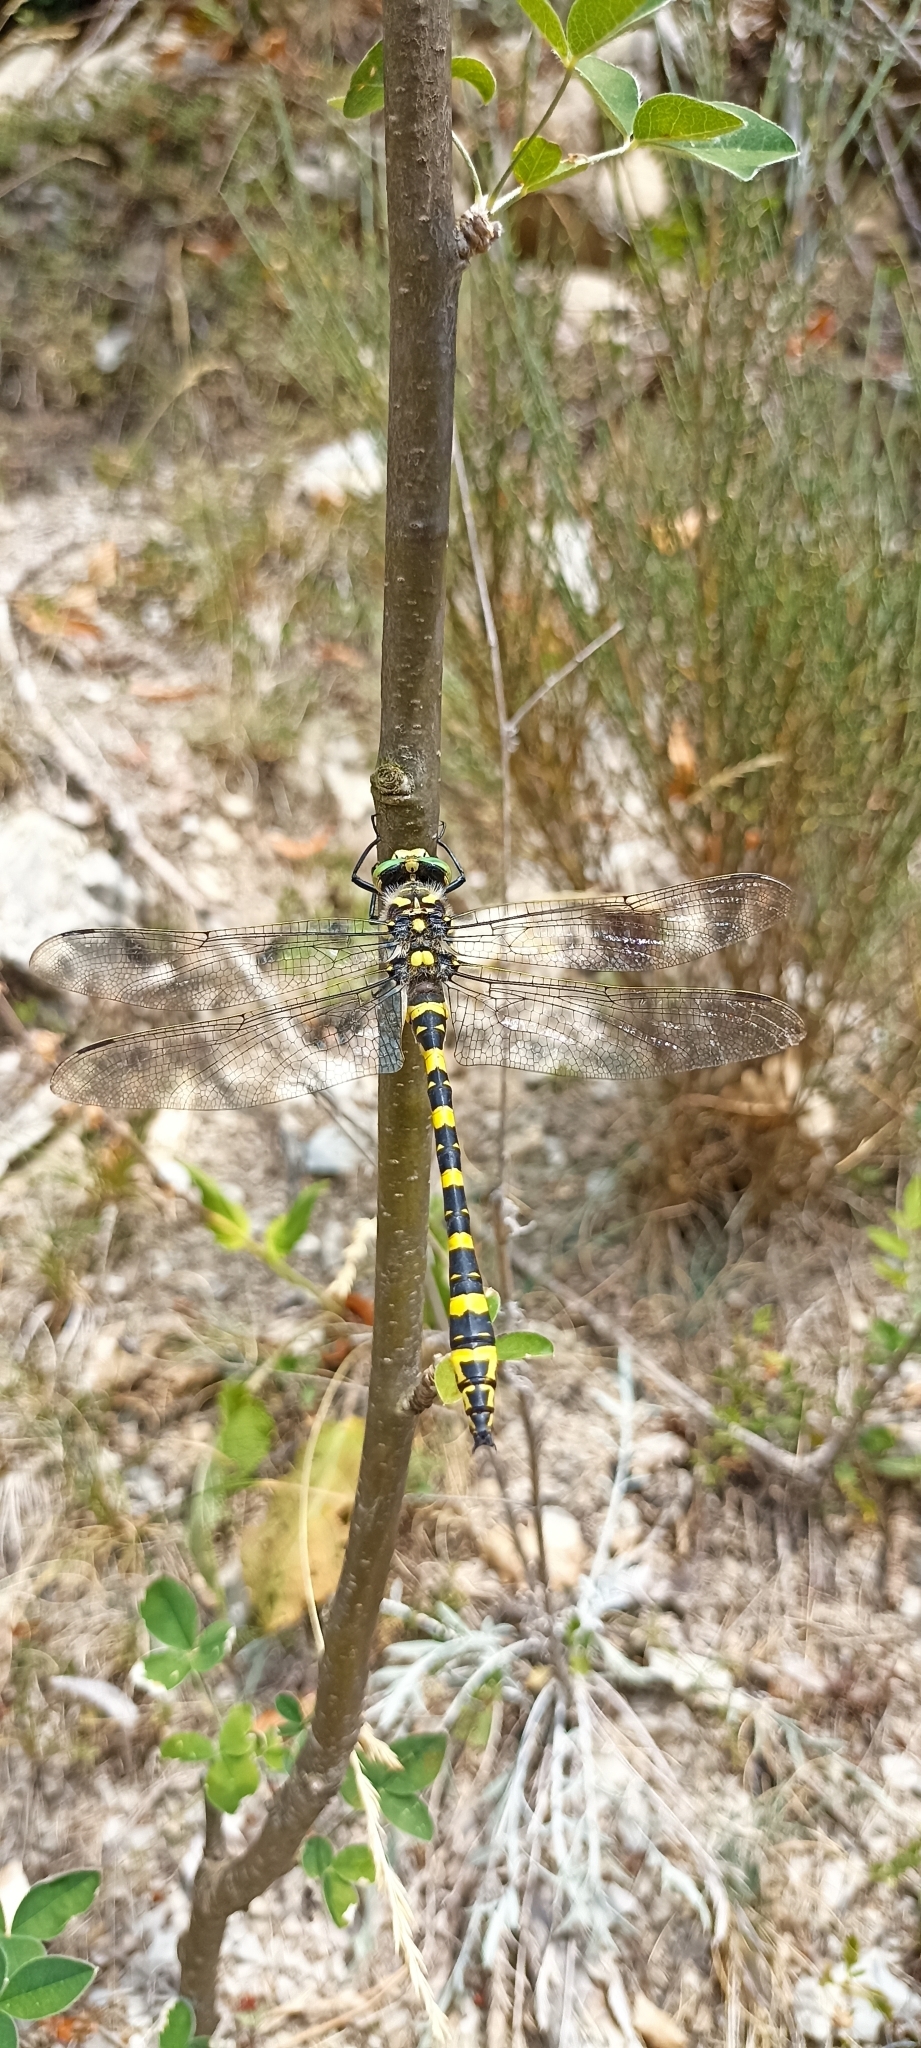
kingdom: Animalia
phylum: Arthropoda
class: Insecta
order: Odonata
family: Cordulegastridae
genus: Cordulegaster
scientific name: Cordulegaster boltonii
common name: Golden-ringed dragonfly
